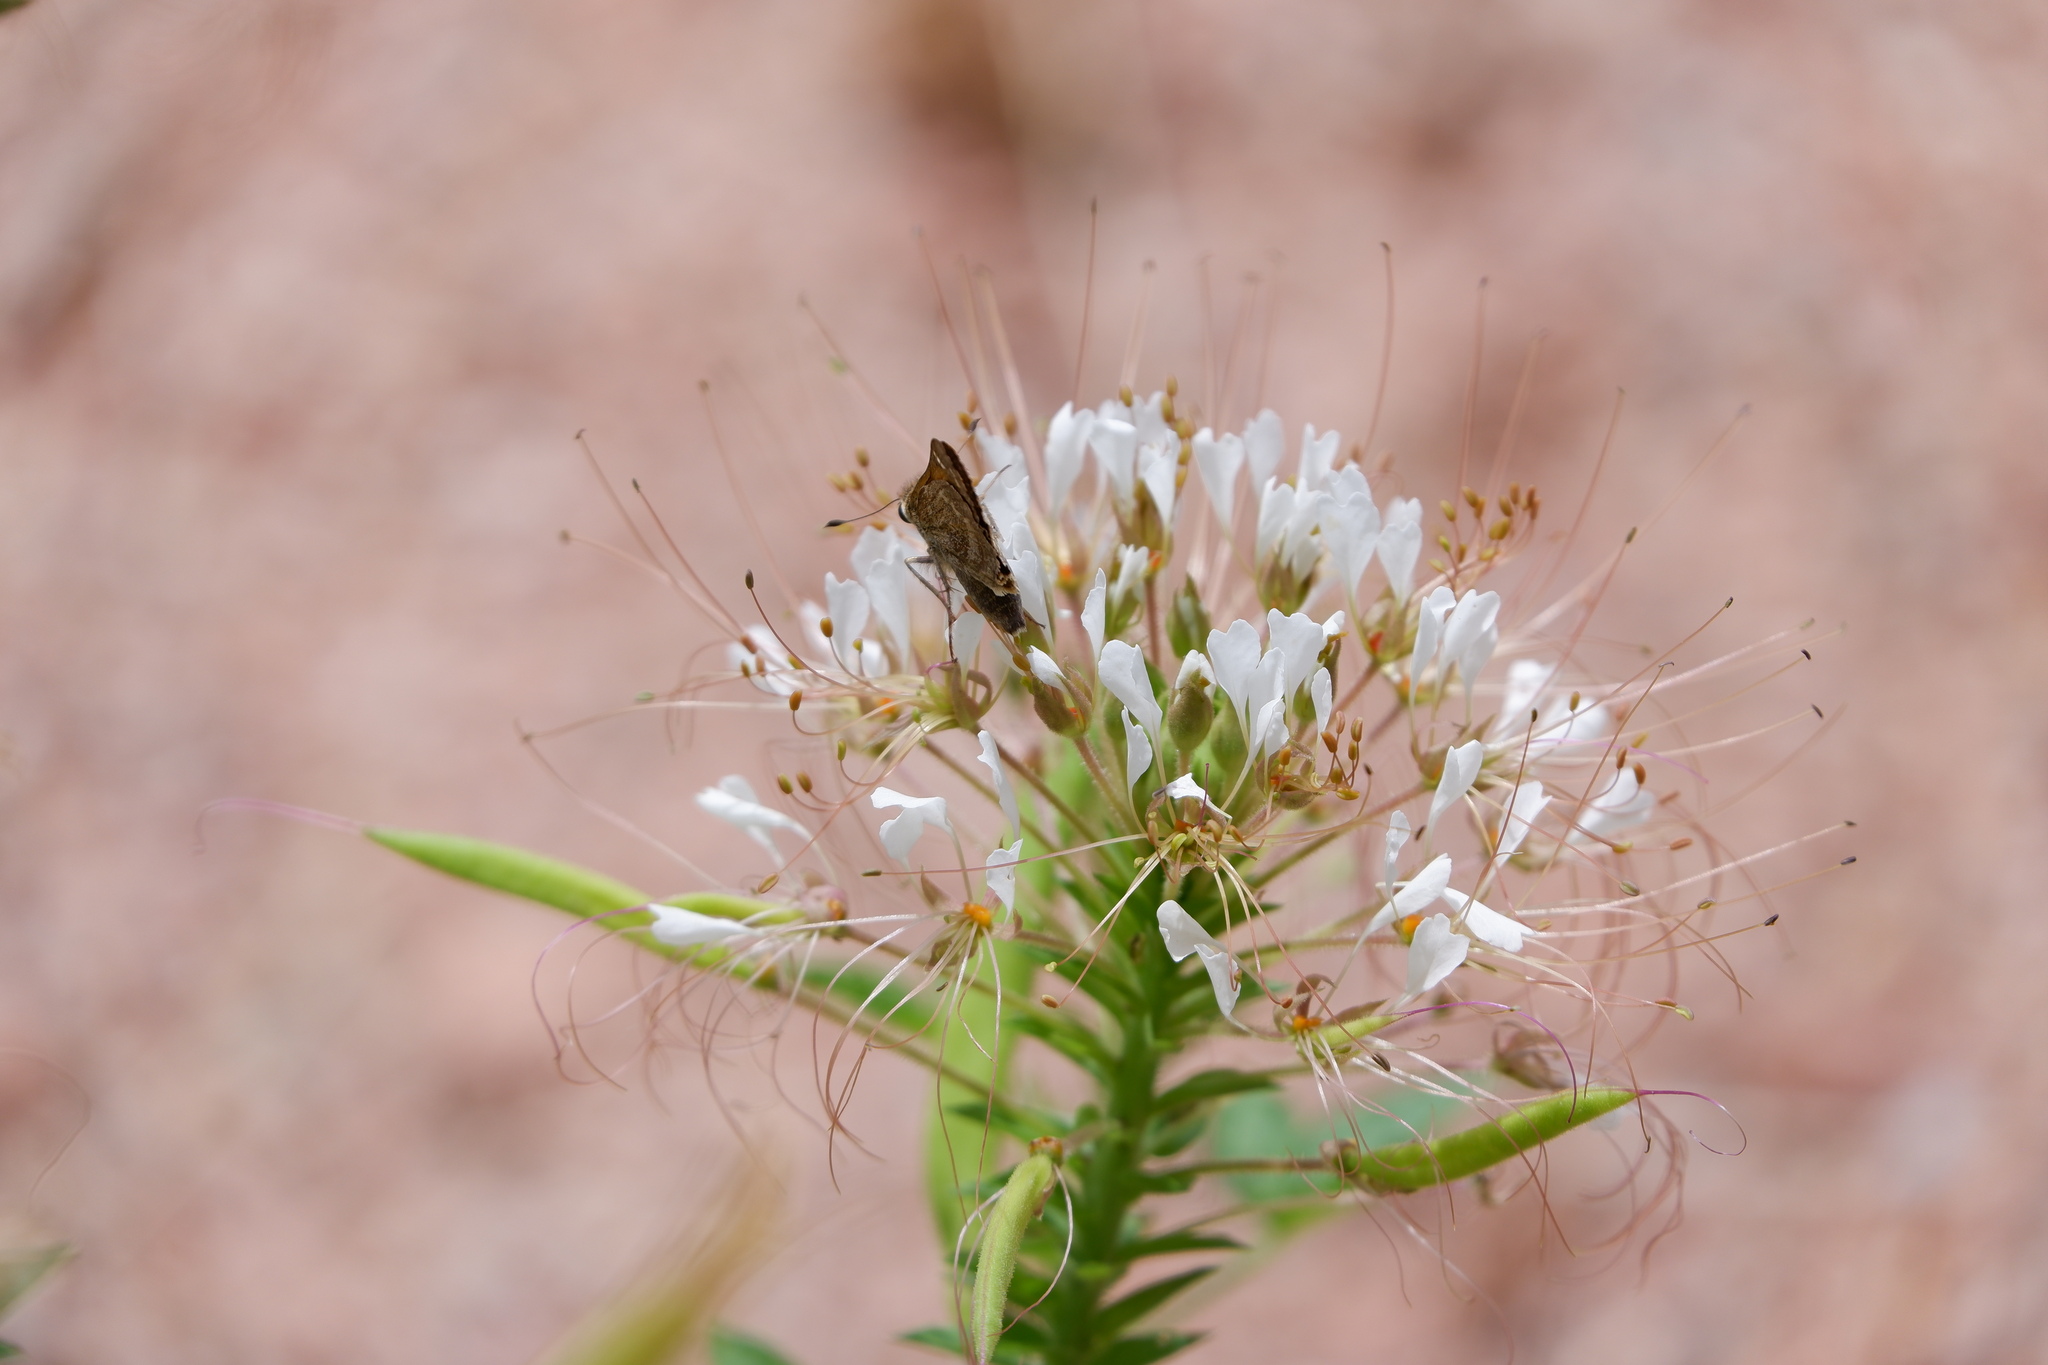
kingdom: Plantae
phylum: Tracheophyta
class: Magnoliopsida
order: Brassicales
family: Cleomaceae
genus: Polanisia
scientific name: Polanisia trachysperma
